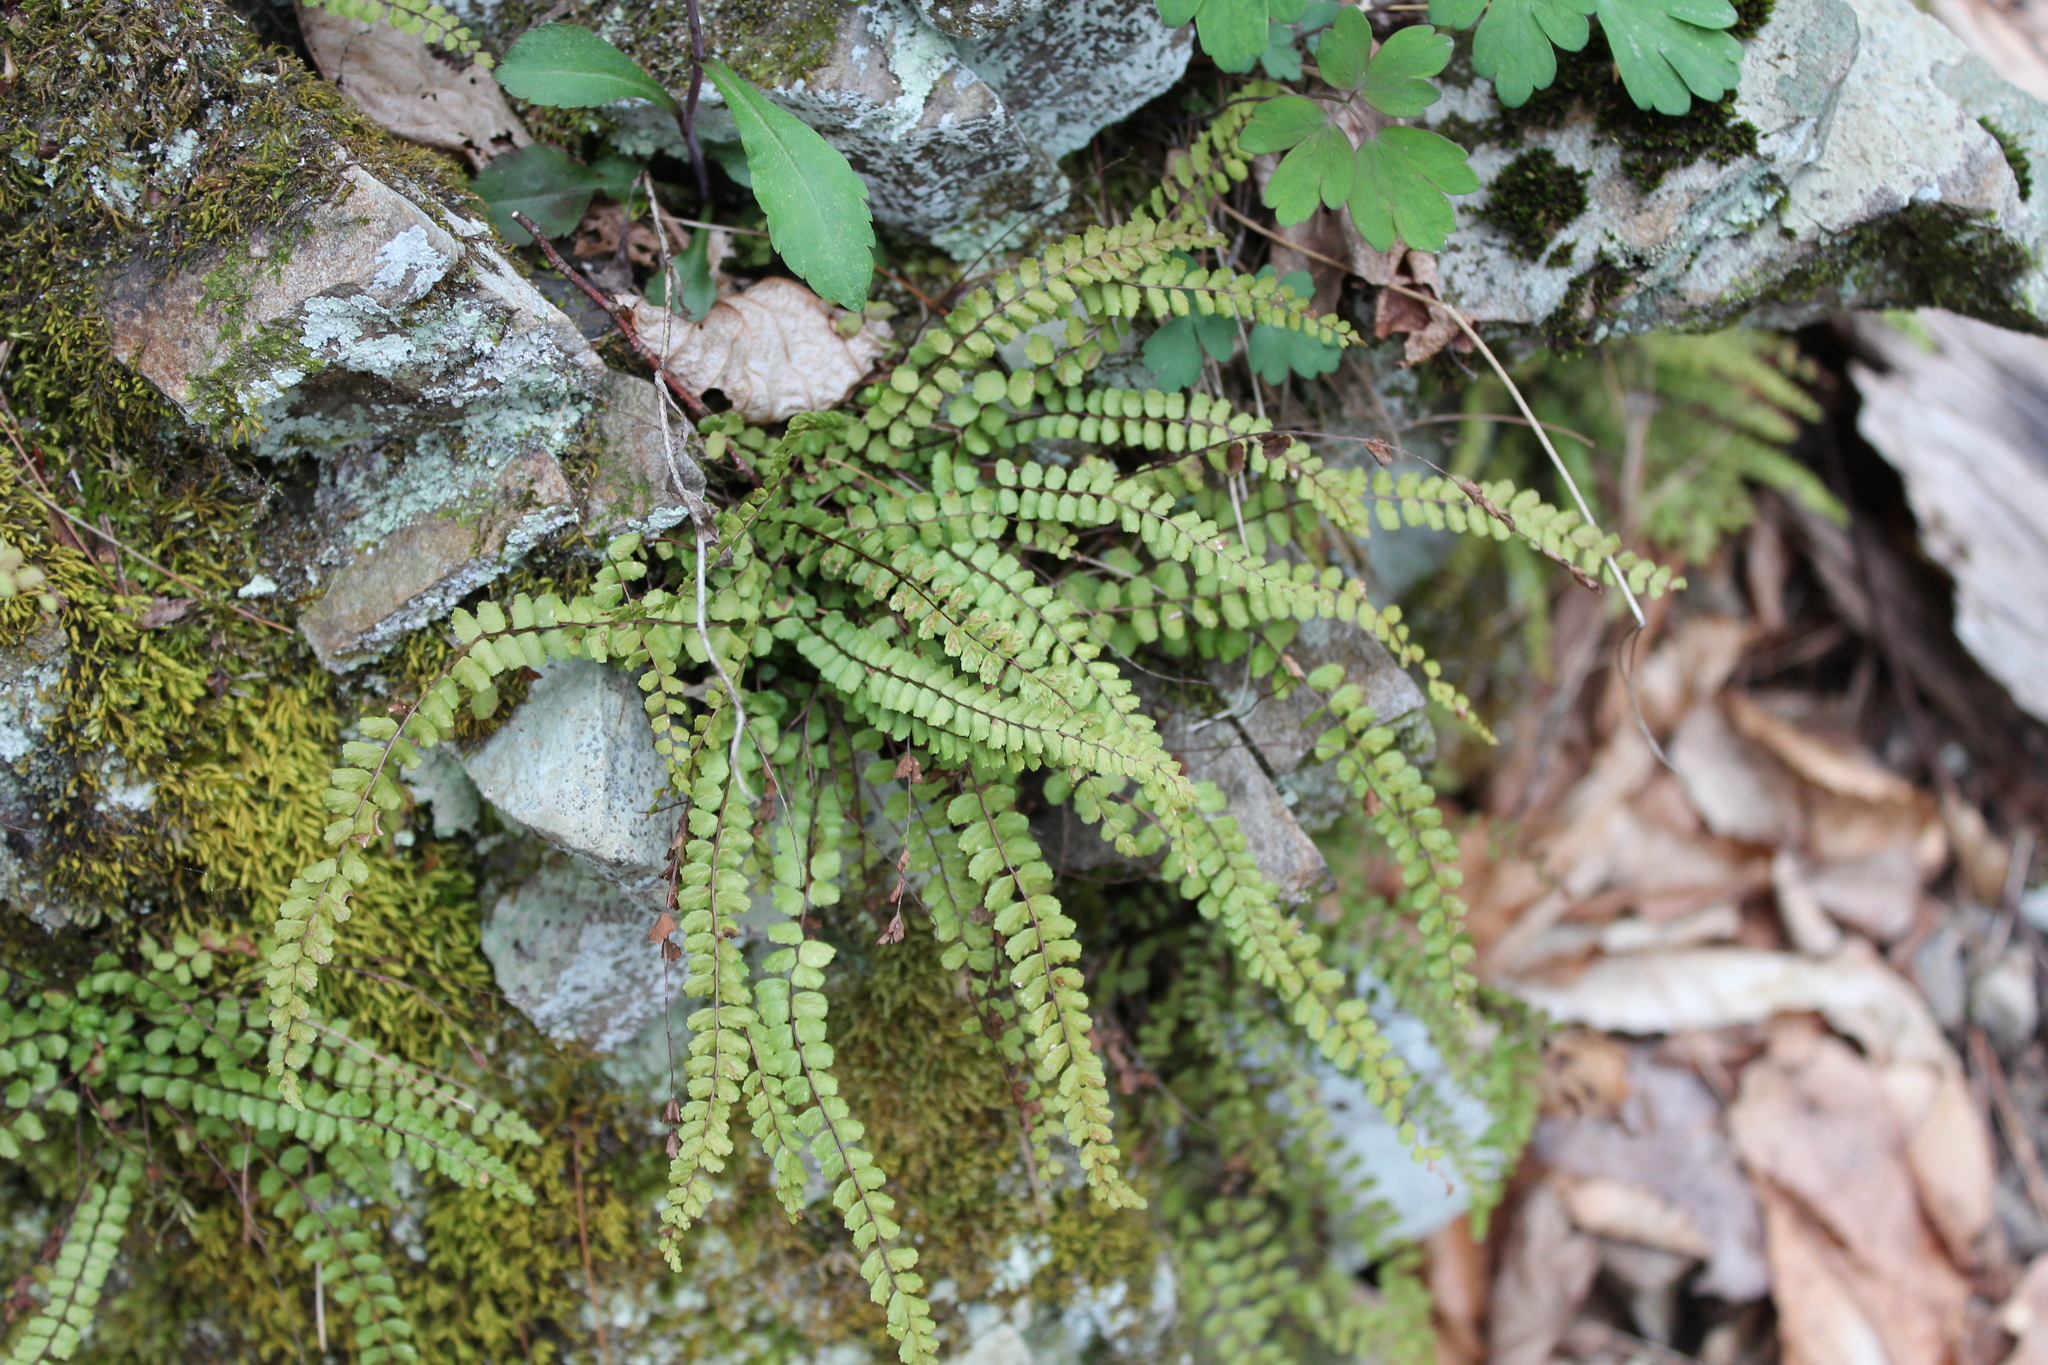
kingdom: Plantae
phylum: Tracheophyta
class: Polypodiopsida
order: Polypodiales
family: Aspleniaceae
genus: Asplenium
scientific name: Asplenium trichomanes
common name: Maidenhair spleenwort
